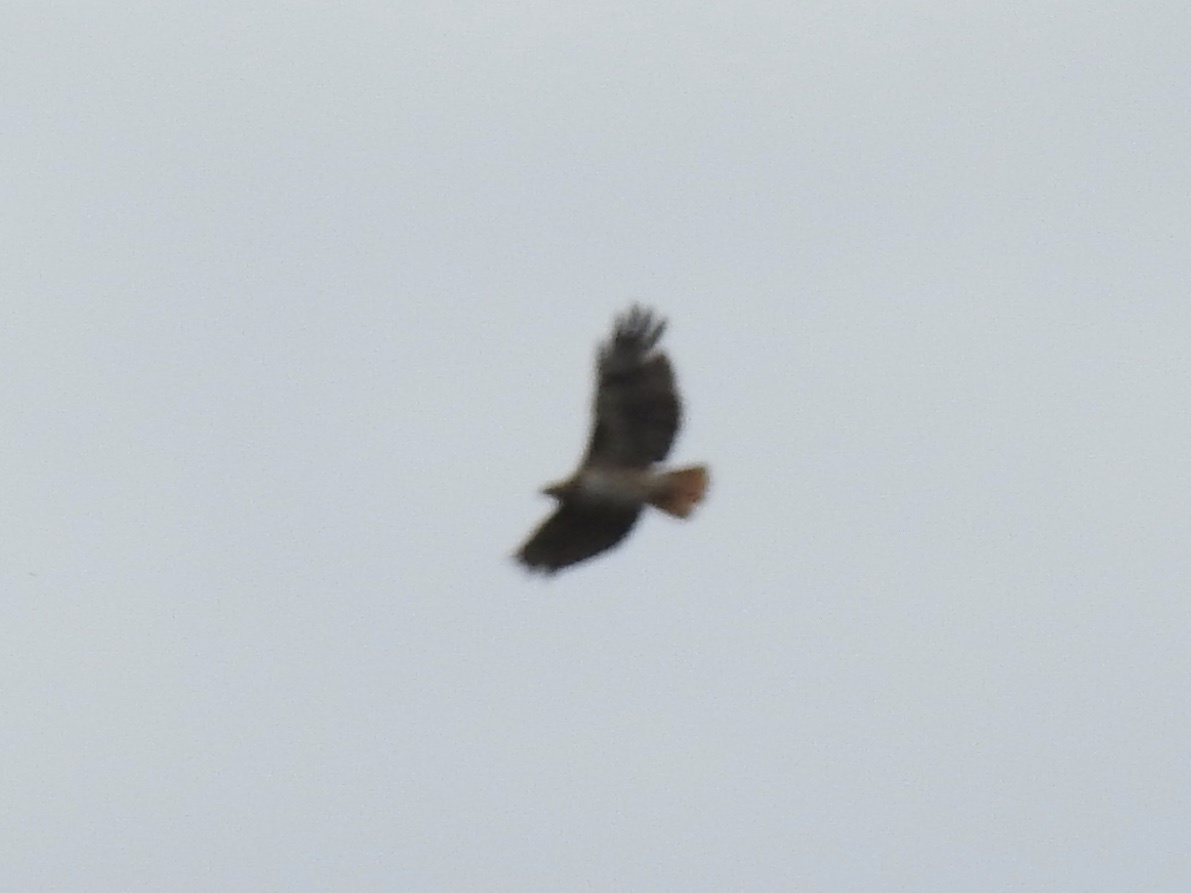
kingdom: Animalia
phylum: Chordata
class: Aves
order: Accipitriformes
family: Accipitridae
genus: Buteo
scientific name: Buteo jamaicensis
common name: Red-tailed hawk
